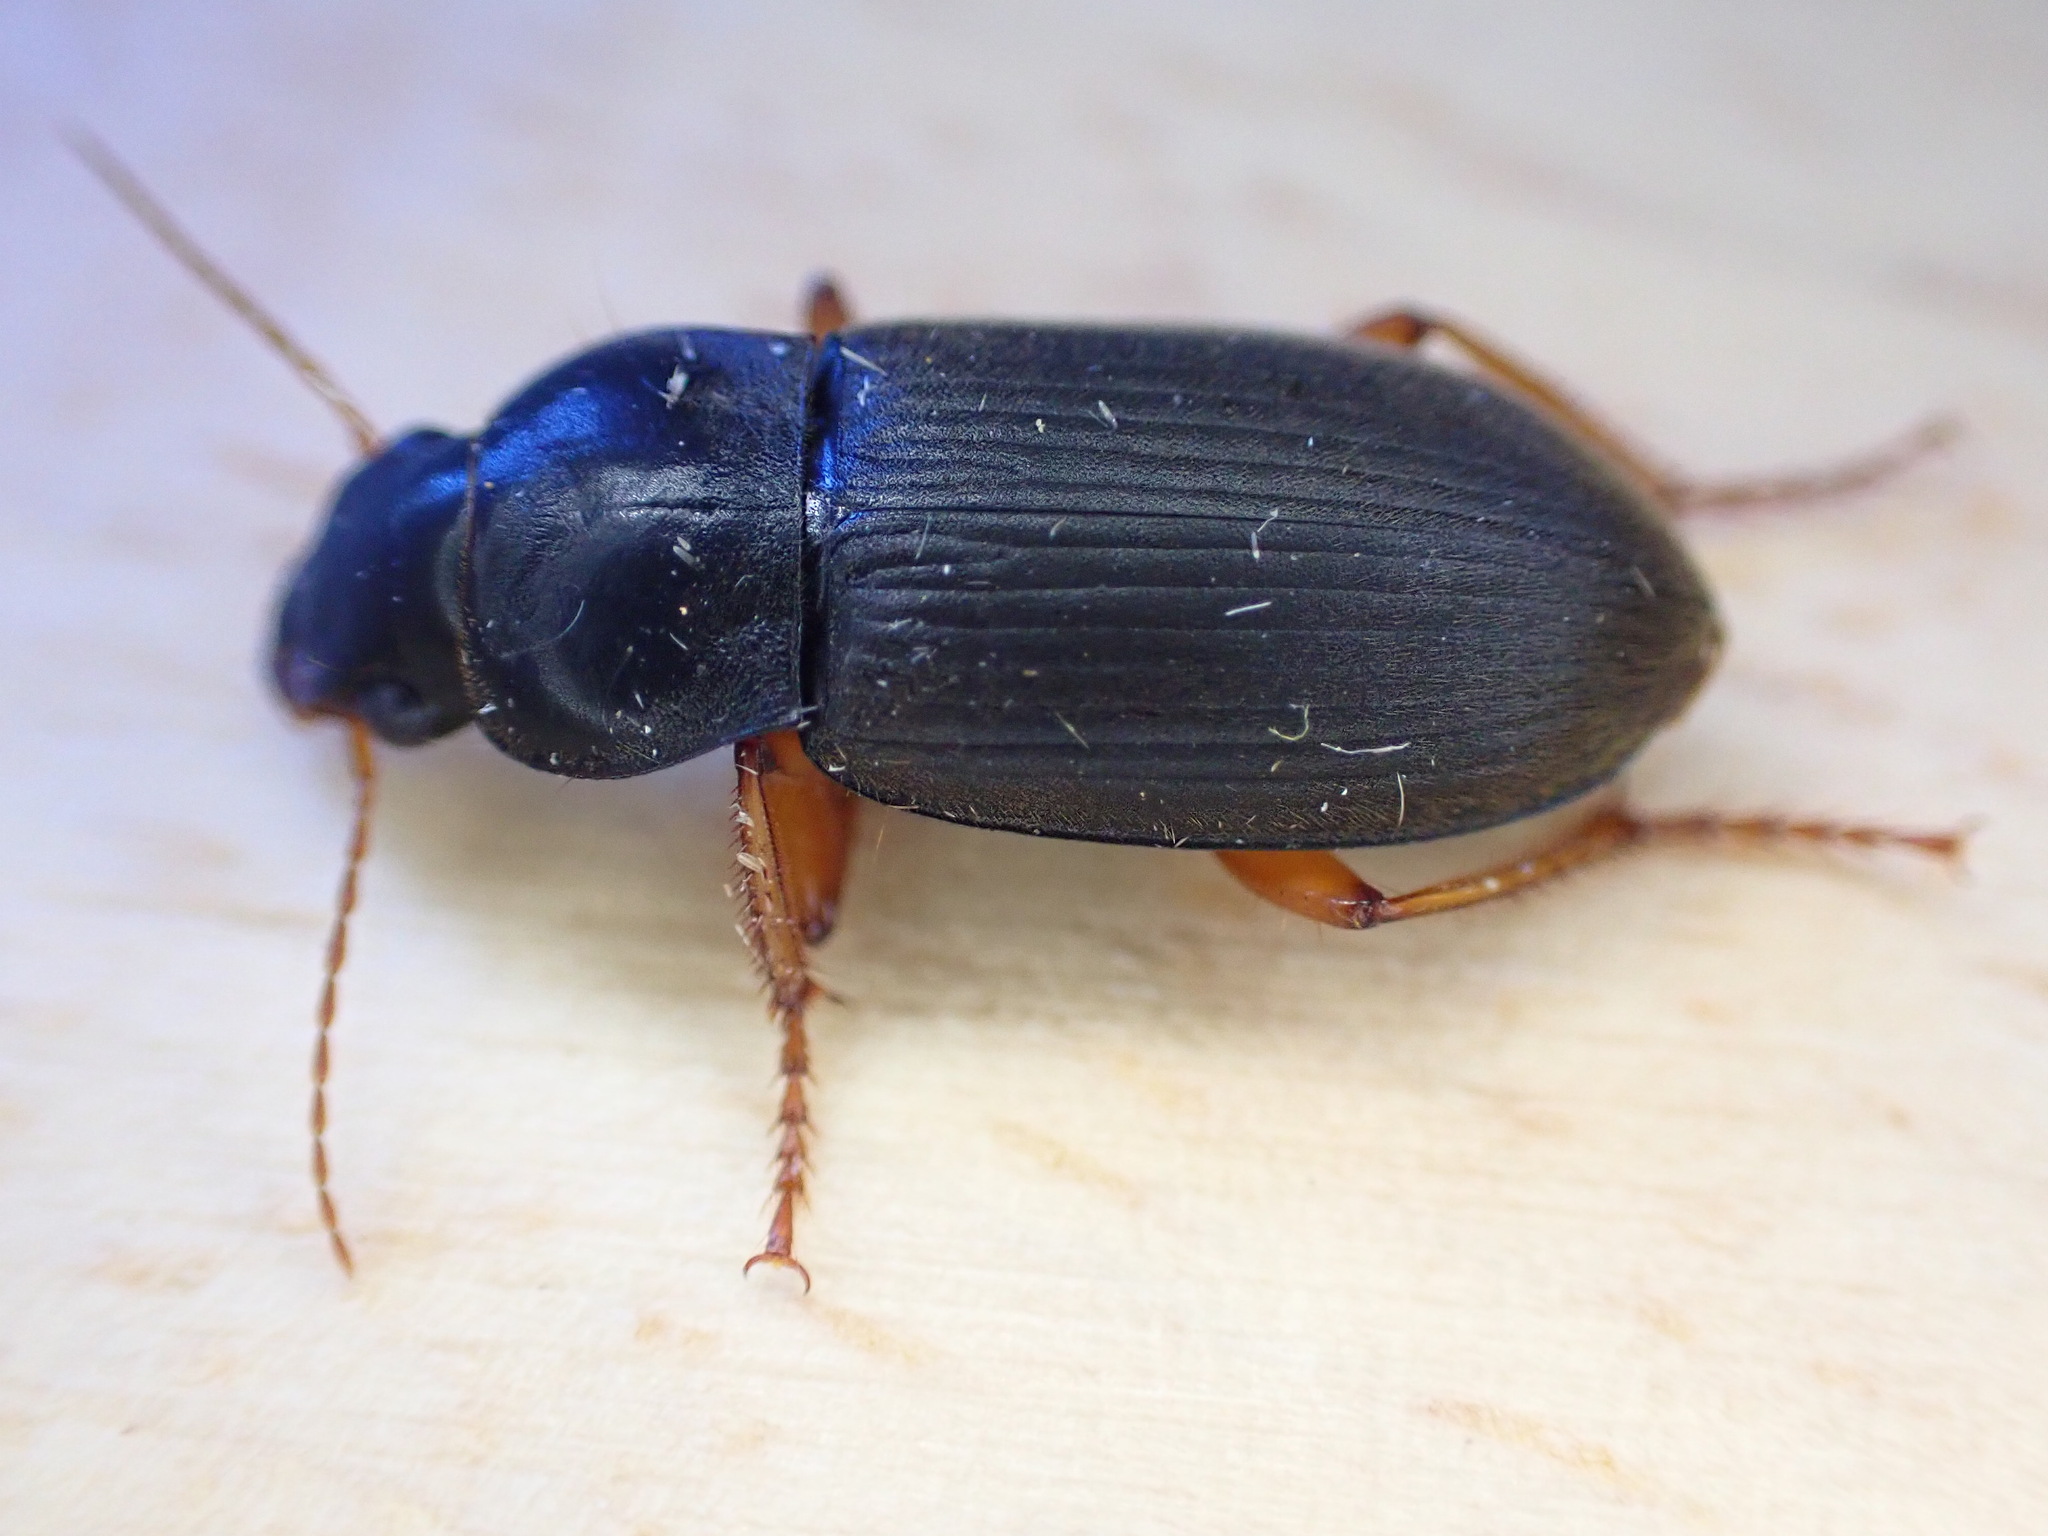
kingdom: Animalia
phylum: Arthropoda
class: Insecta
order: Coleoptera
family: Carabidae
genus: Harpalus
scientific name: Harpalus rufipes
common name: Strawberry harp ground beetle
